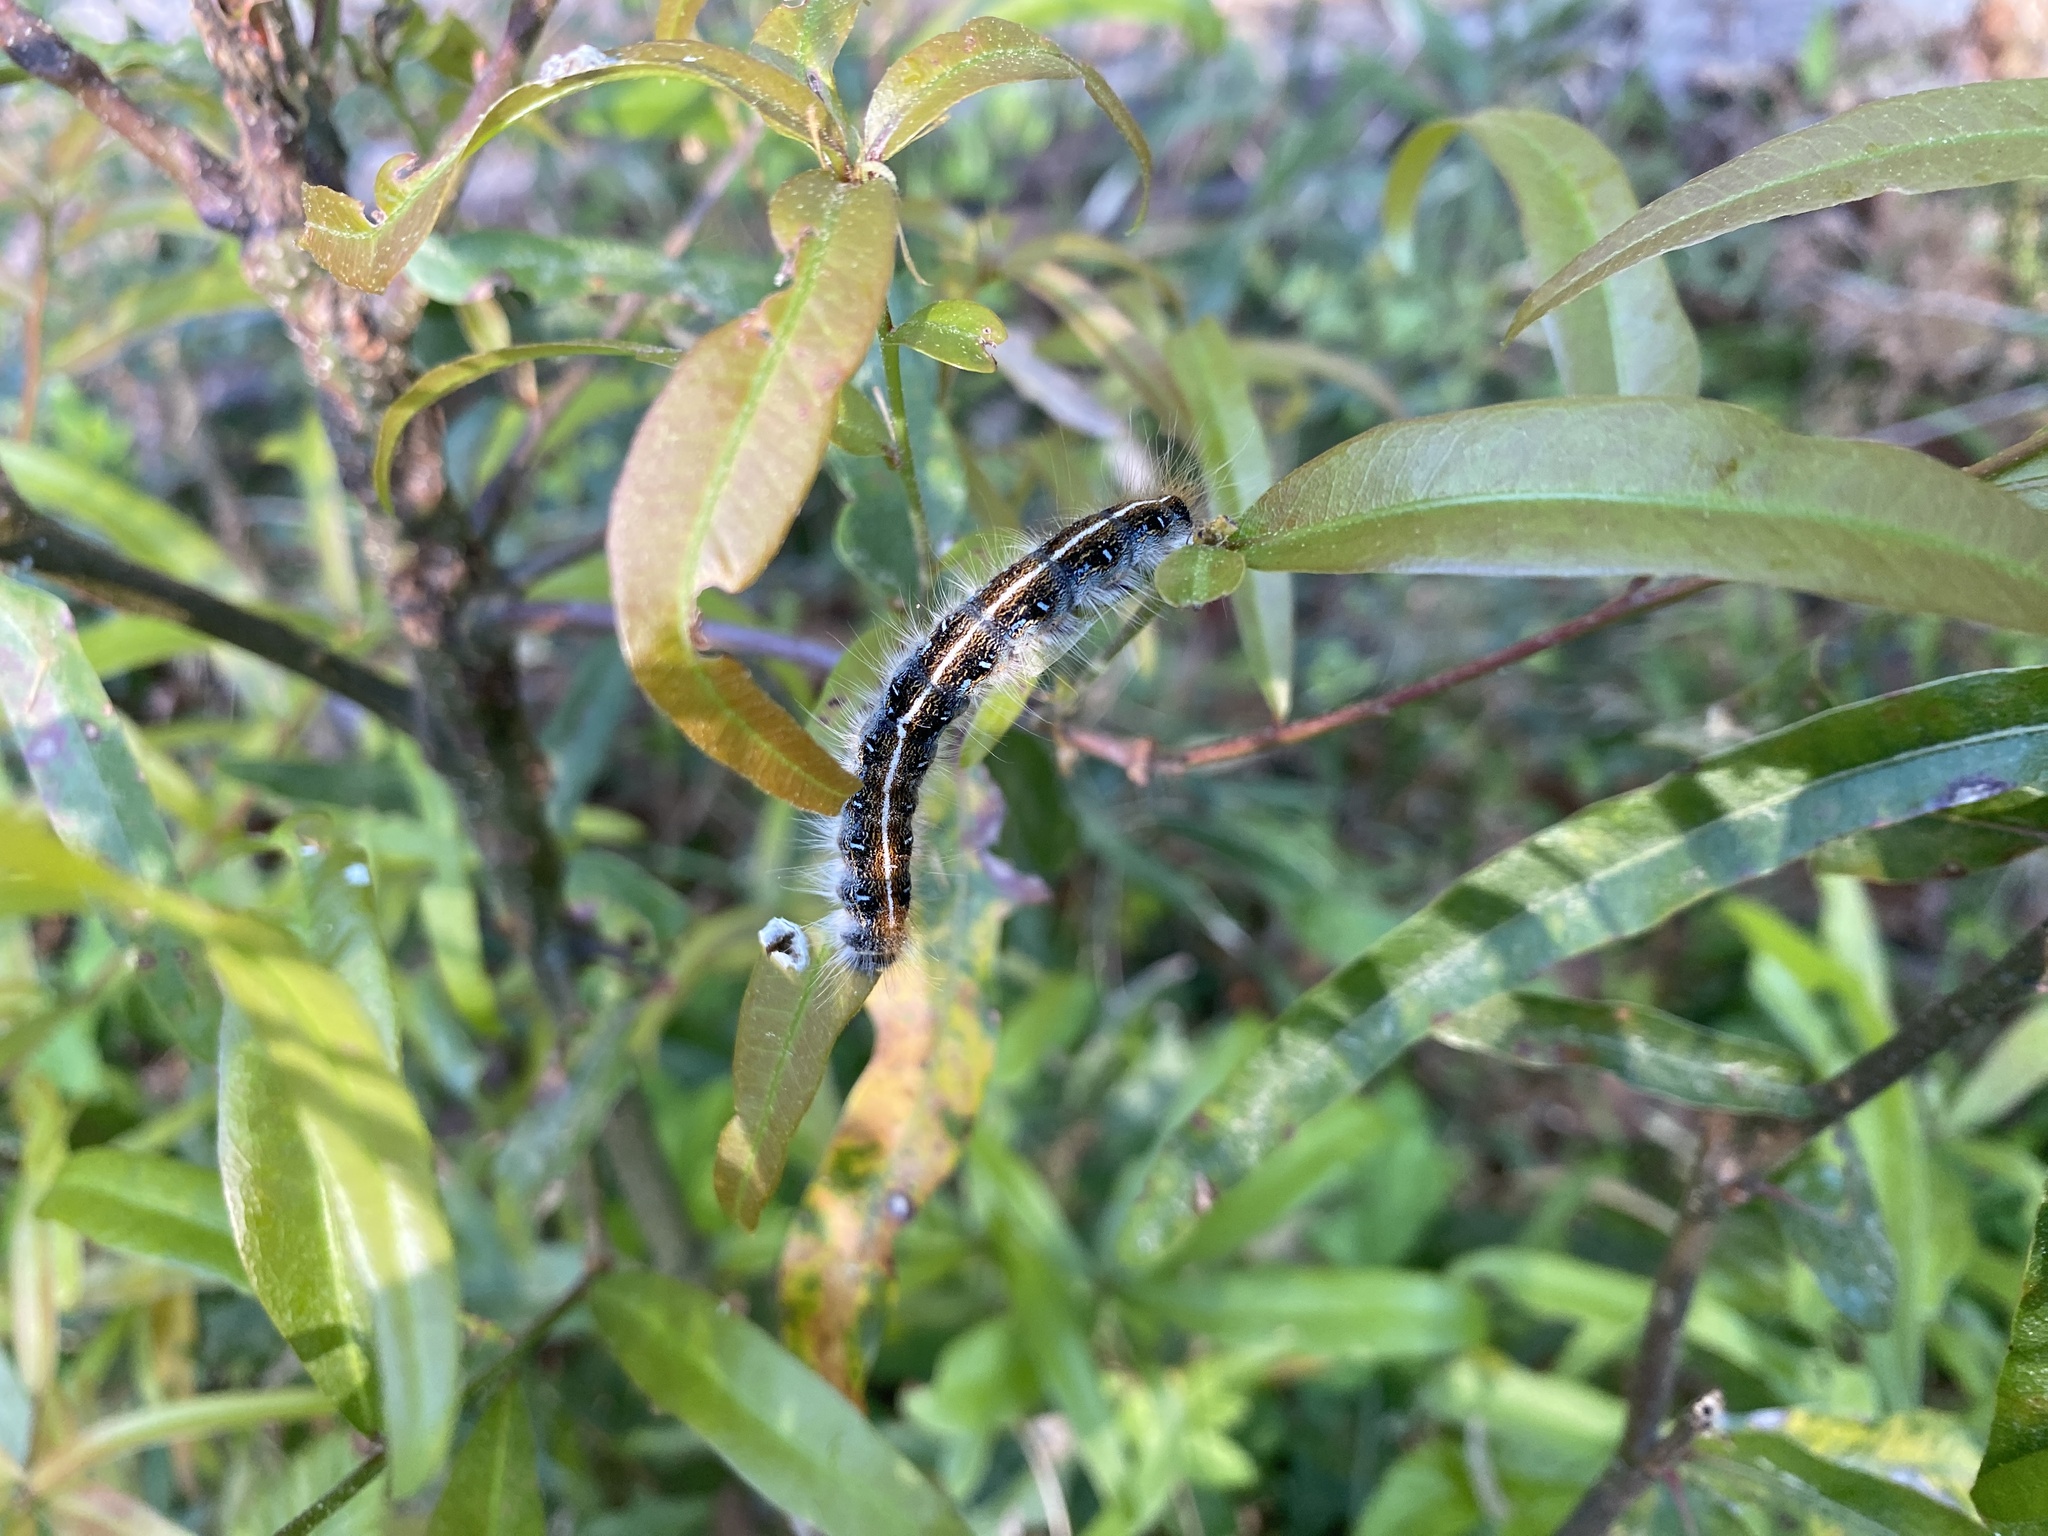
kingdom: Animalia
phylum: Arthropoda
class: Insecta
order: Lepidoptera
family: Lasiocampidae
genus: Malacosoma
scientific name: Malacosoma americana
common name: Eastern tent caterpillar moth
